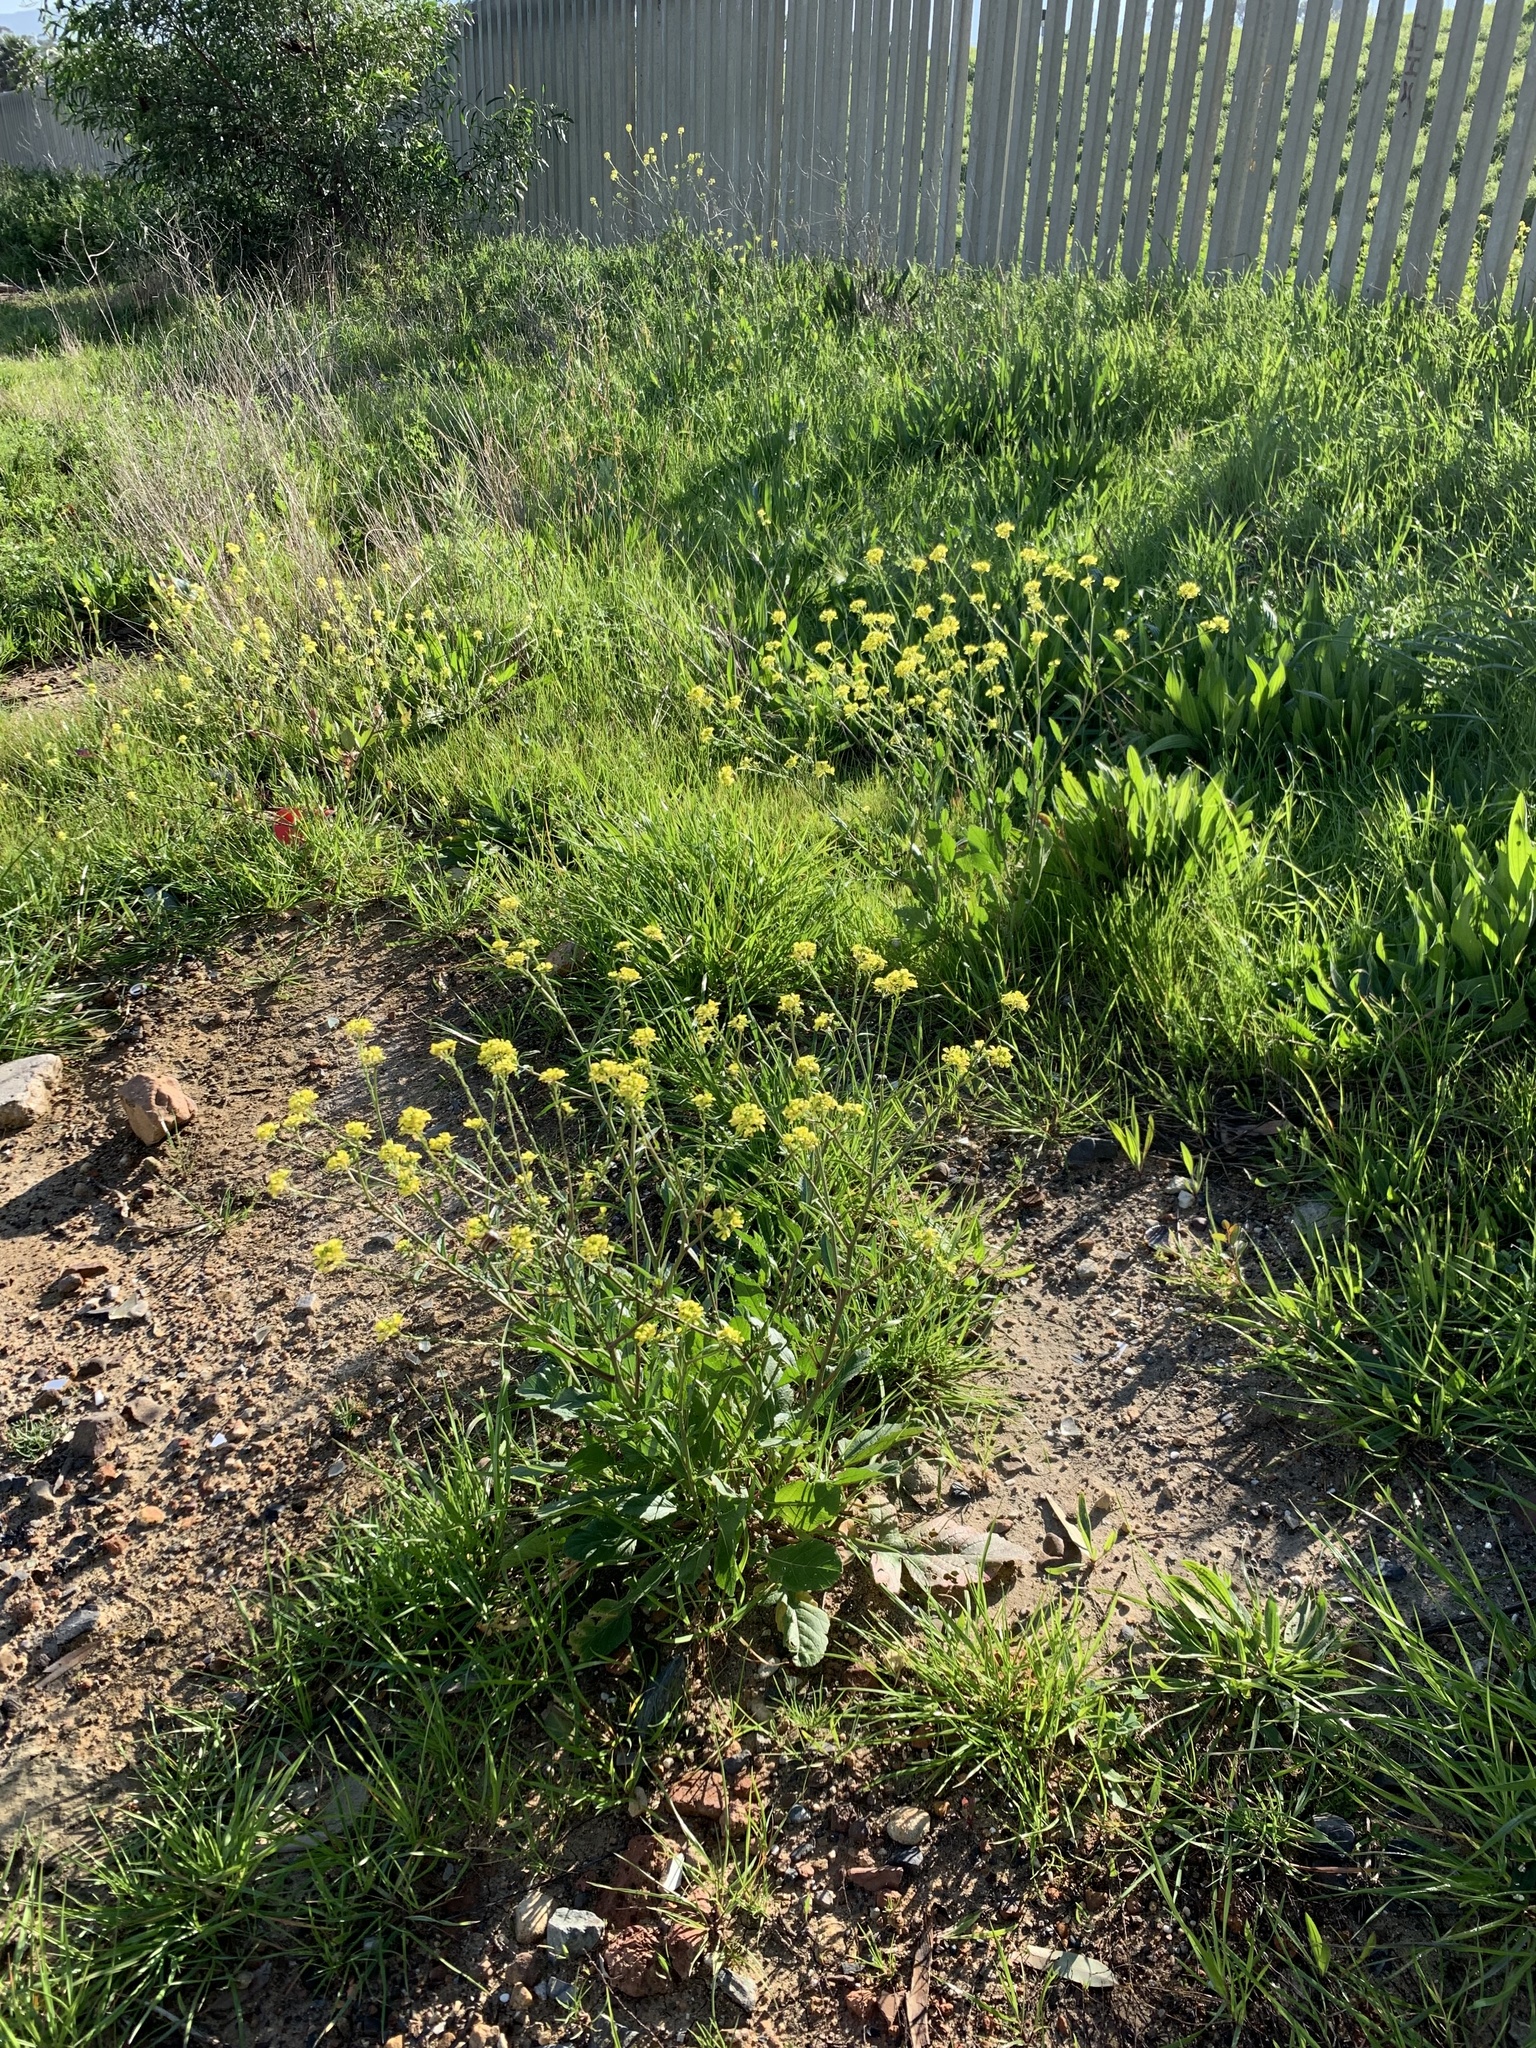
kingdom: Plantae
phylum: Tracheophyta
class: Magnoliopsida
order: Brassicales
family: Brassicaceae
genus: Rapistrum
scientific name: Rapistrum rugosum
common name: Annual bastardcabbage
